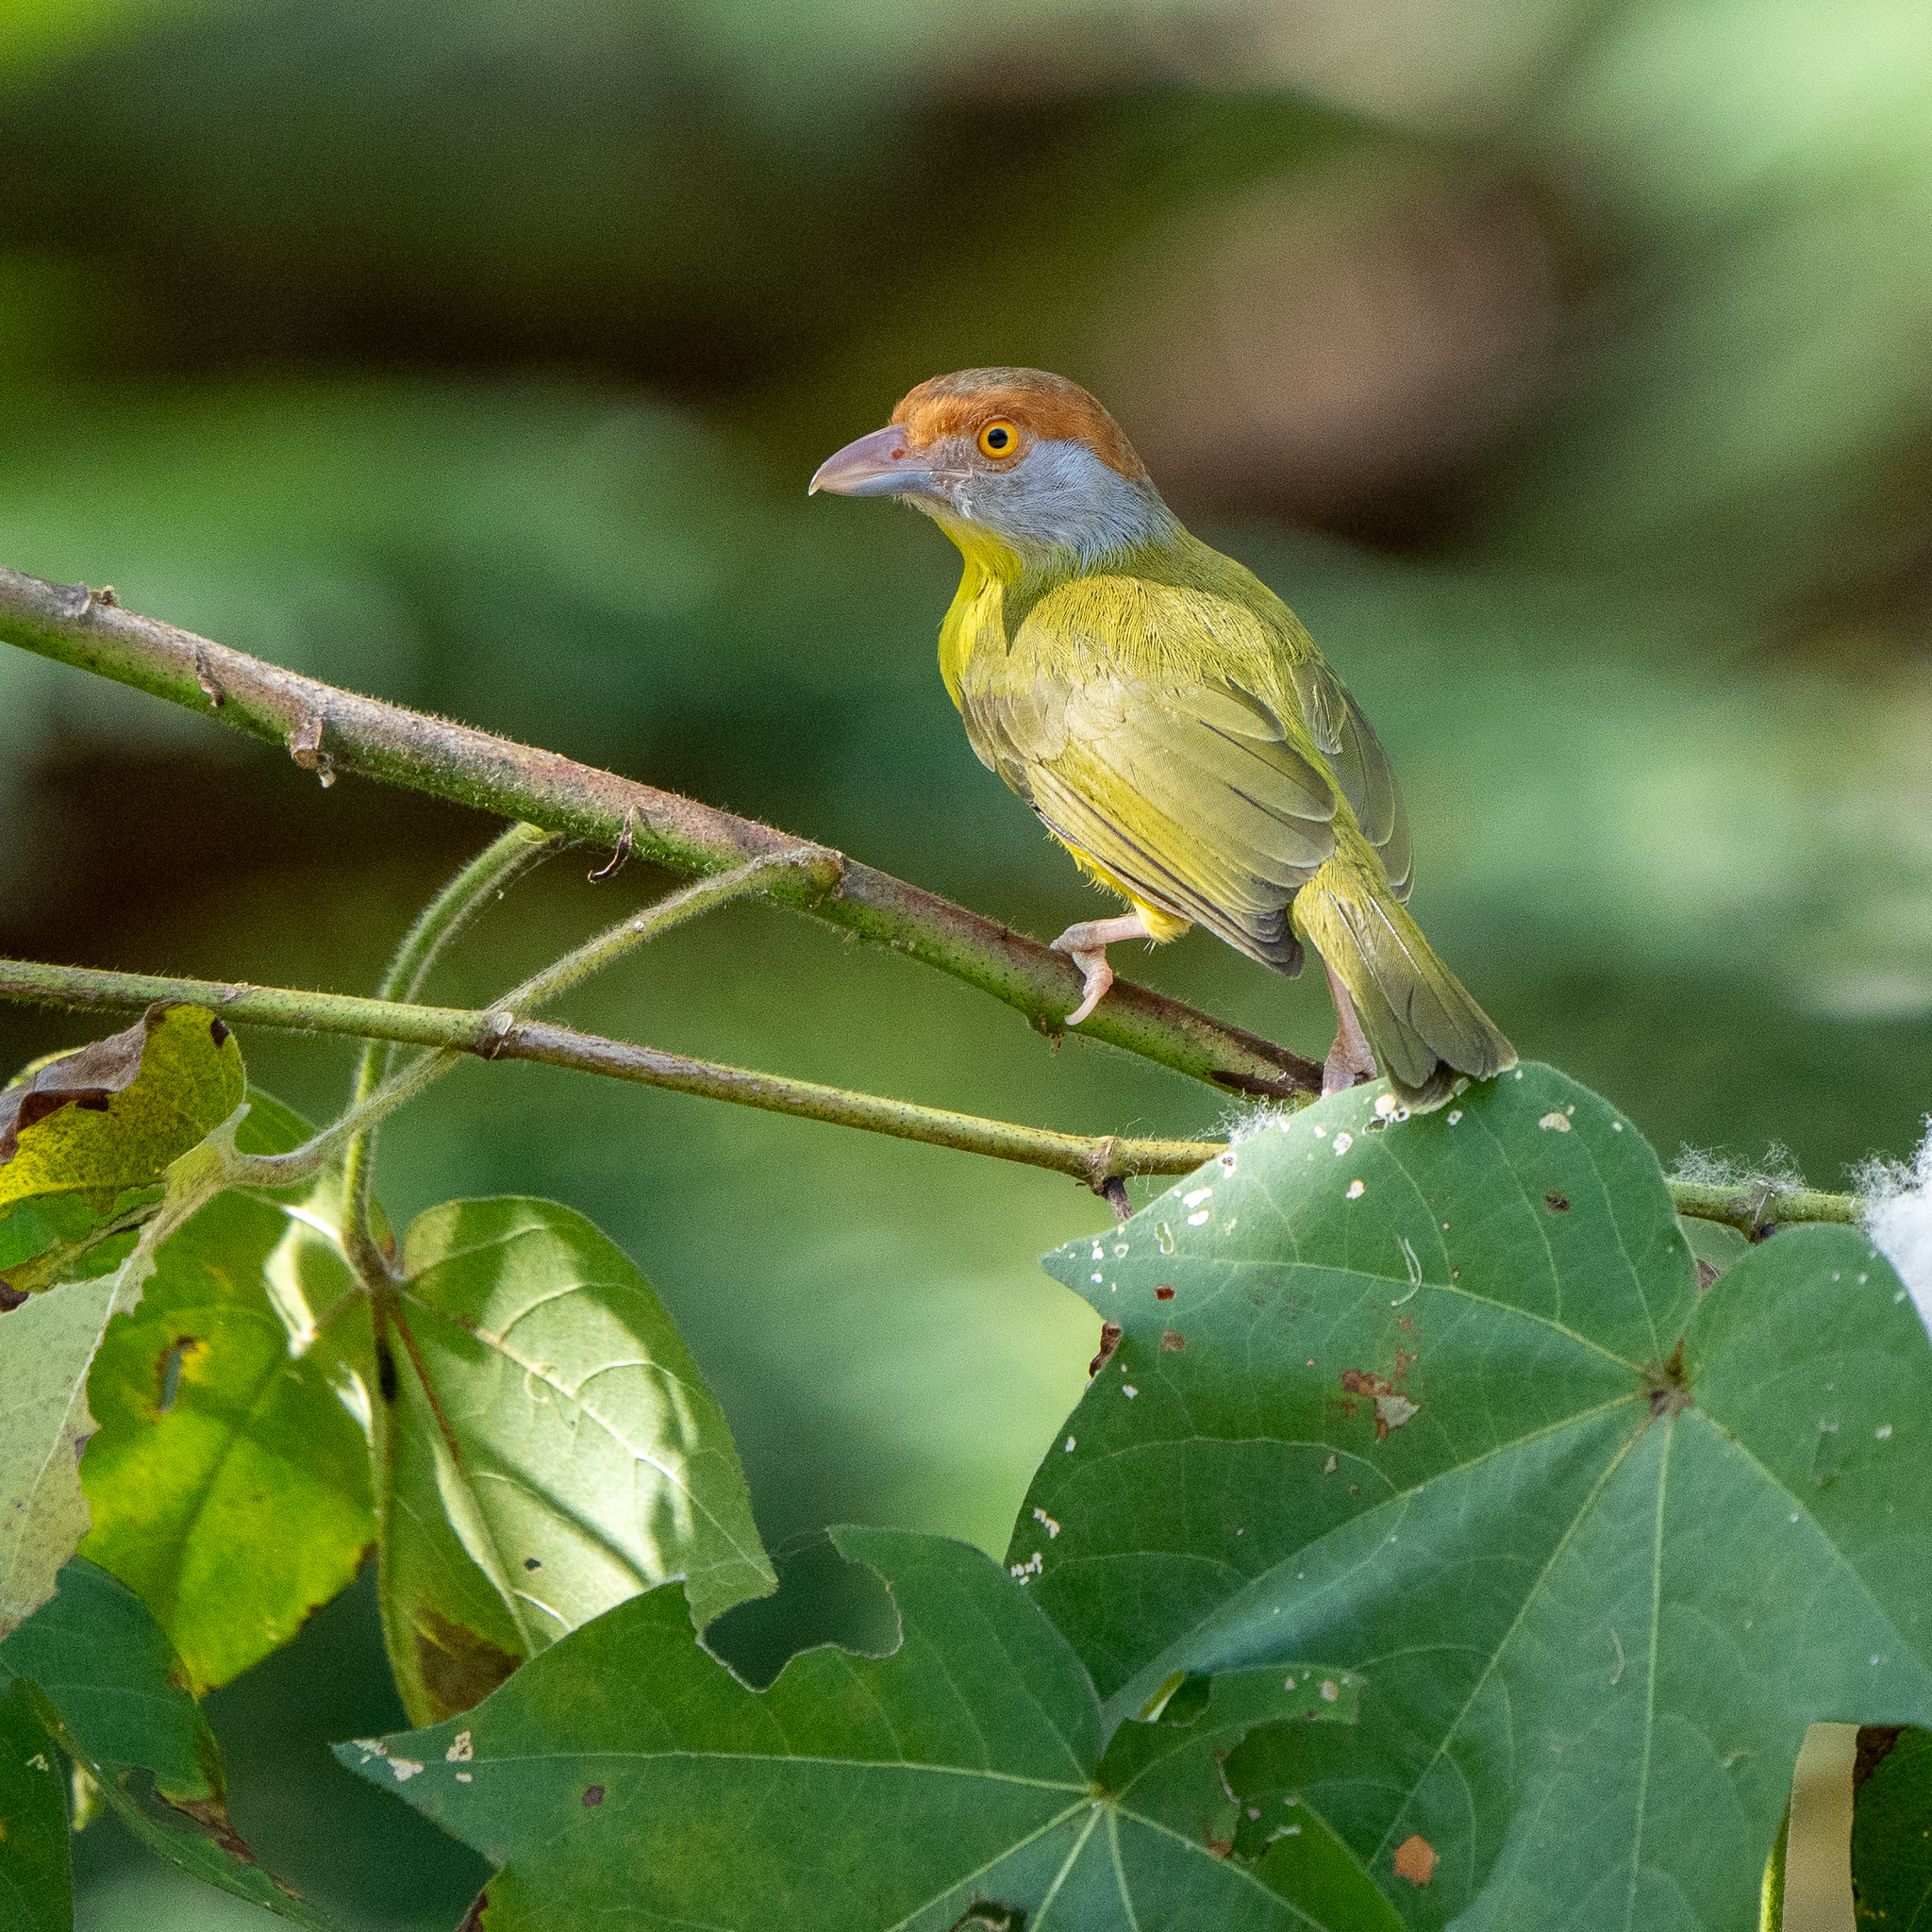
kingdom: Animalia
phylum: Chordata
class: Aves
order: Passeriformes
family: Vireonidae
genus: Cyclarhis
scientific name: Cyclarhis gujanensis
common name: Rufous-browed peppershrike
